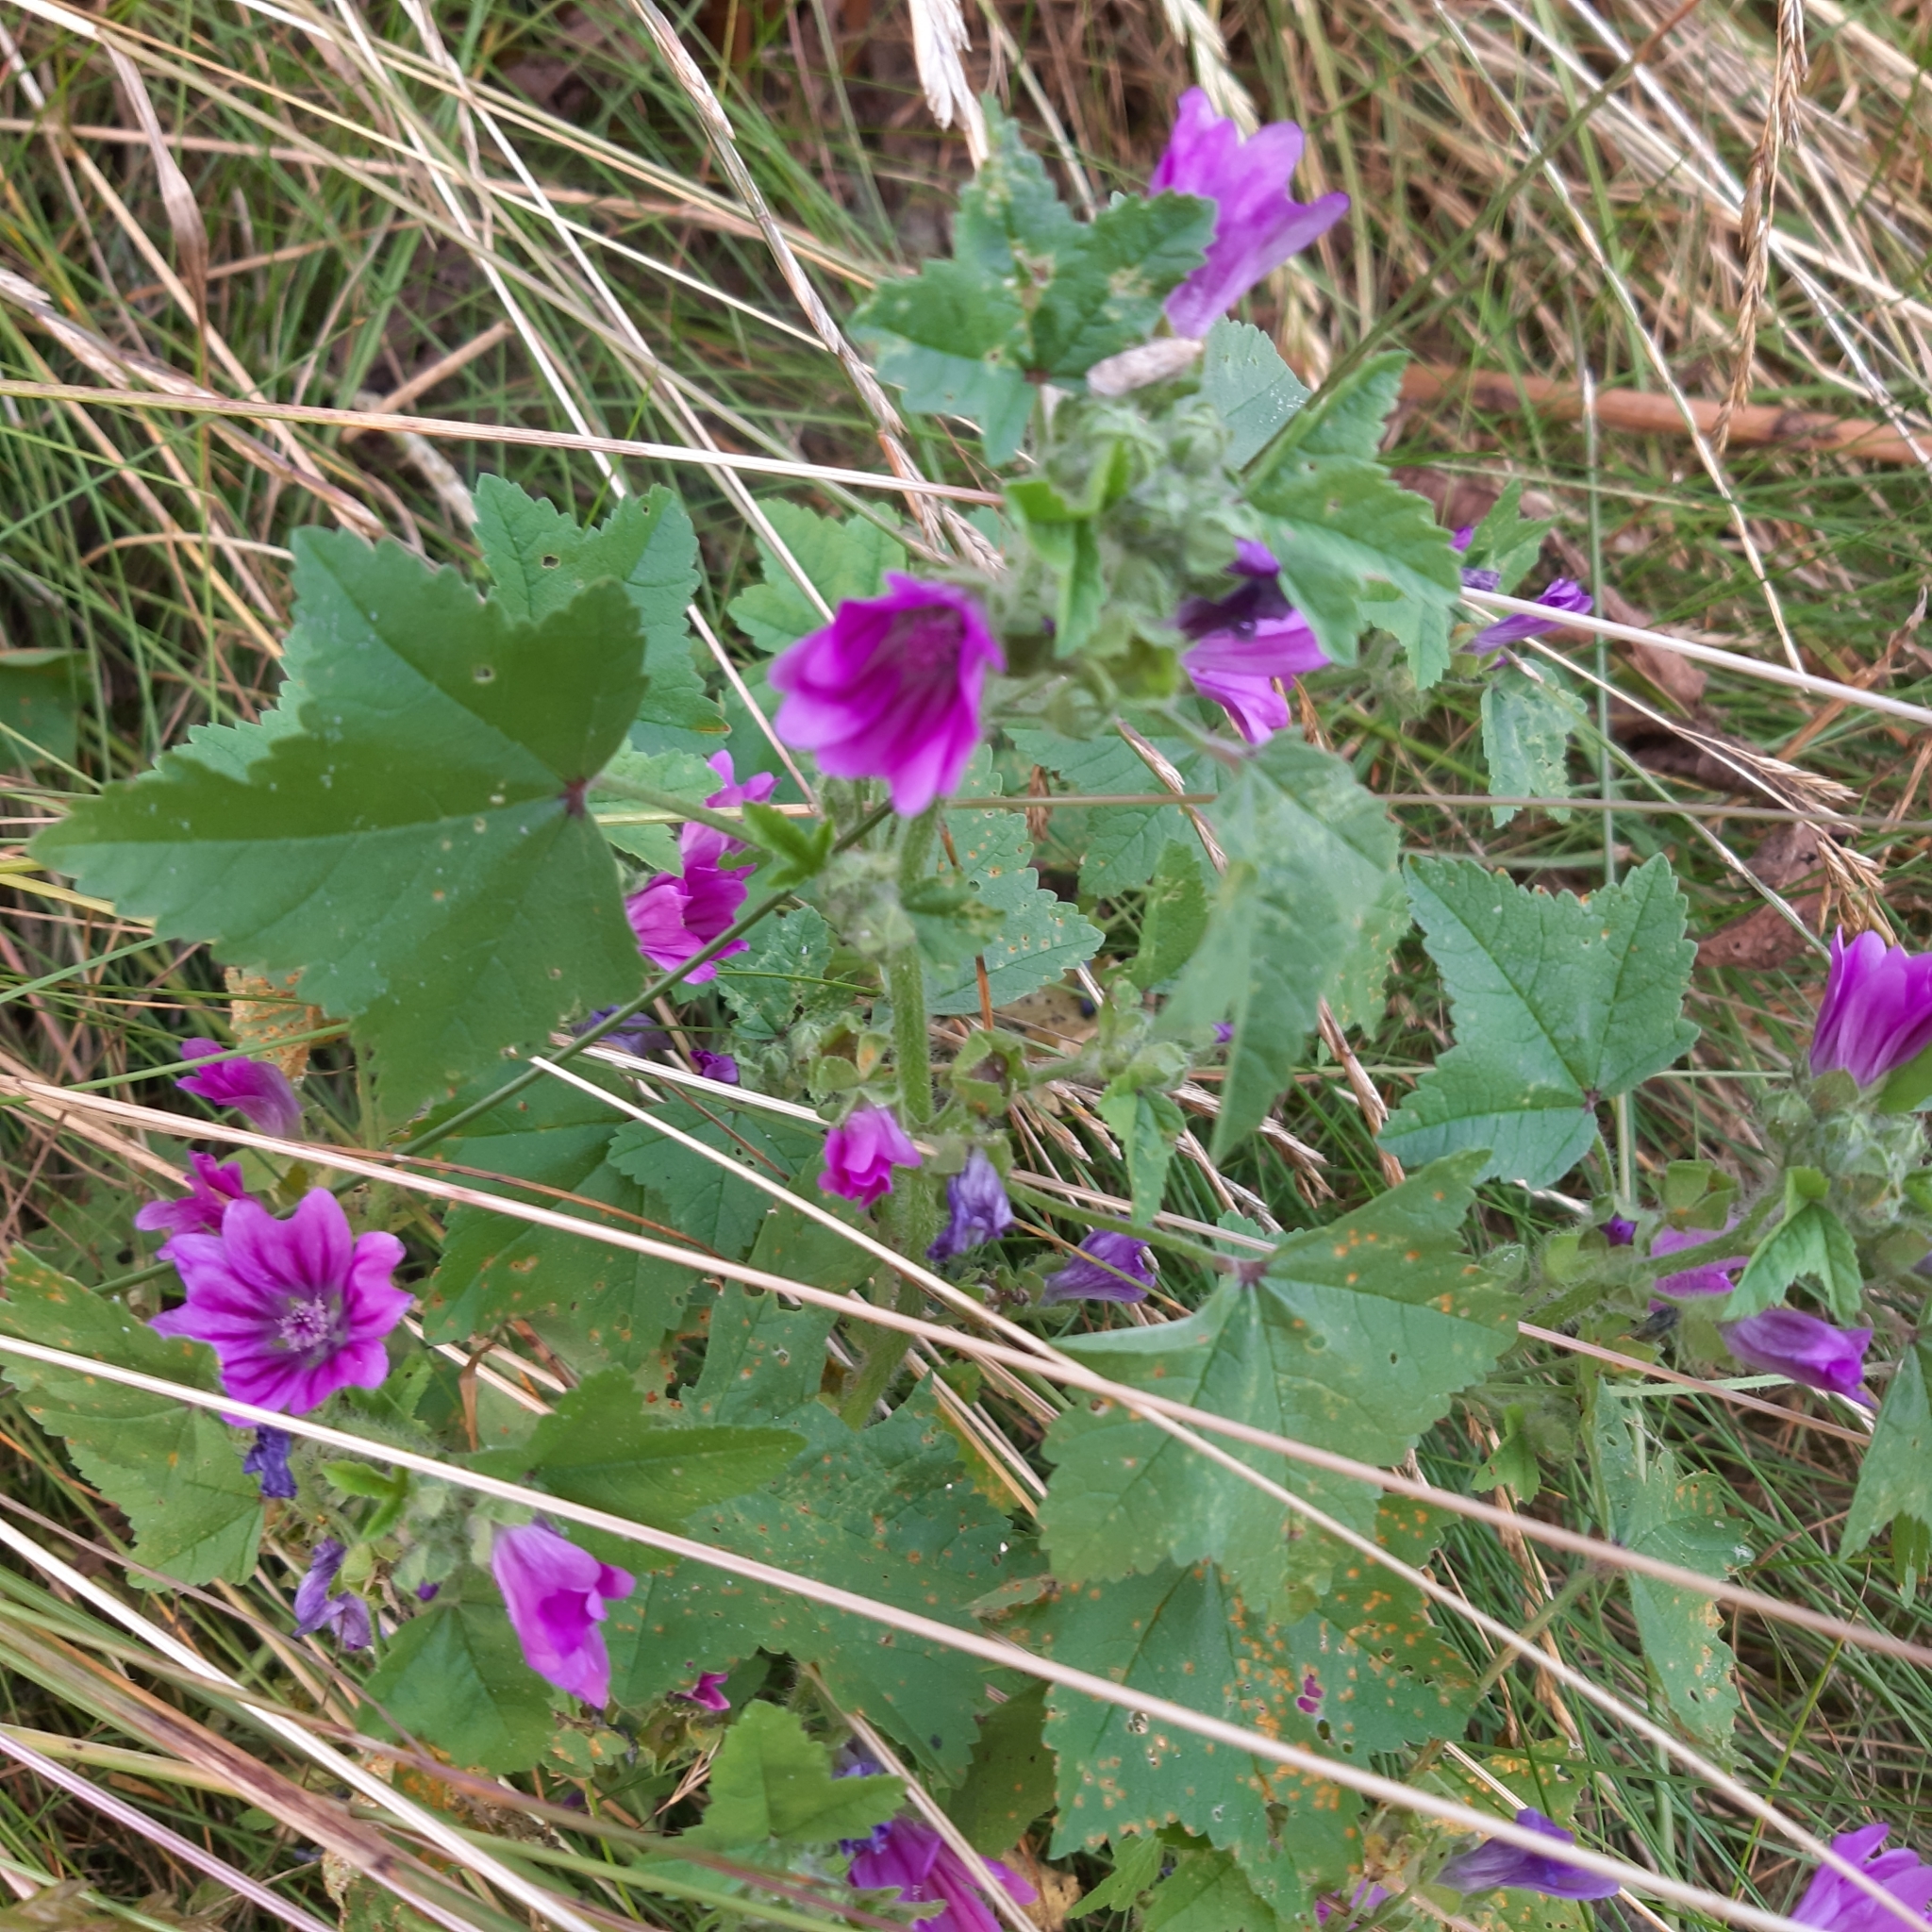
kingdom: Plantae
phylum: Tracheophyta
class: Magnoliopsida
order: Malvales
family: Malvaceae
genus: Malva
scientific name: Malva sylvestris
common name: Common mallow
